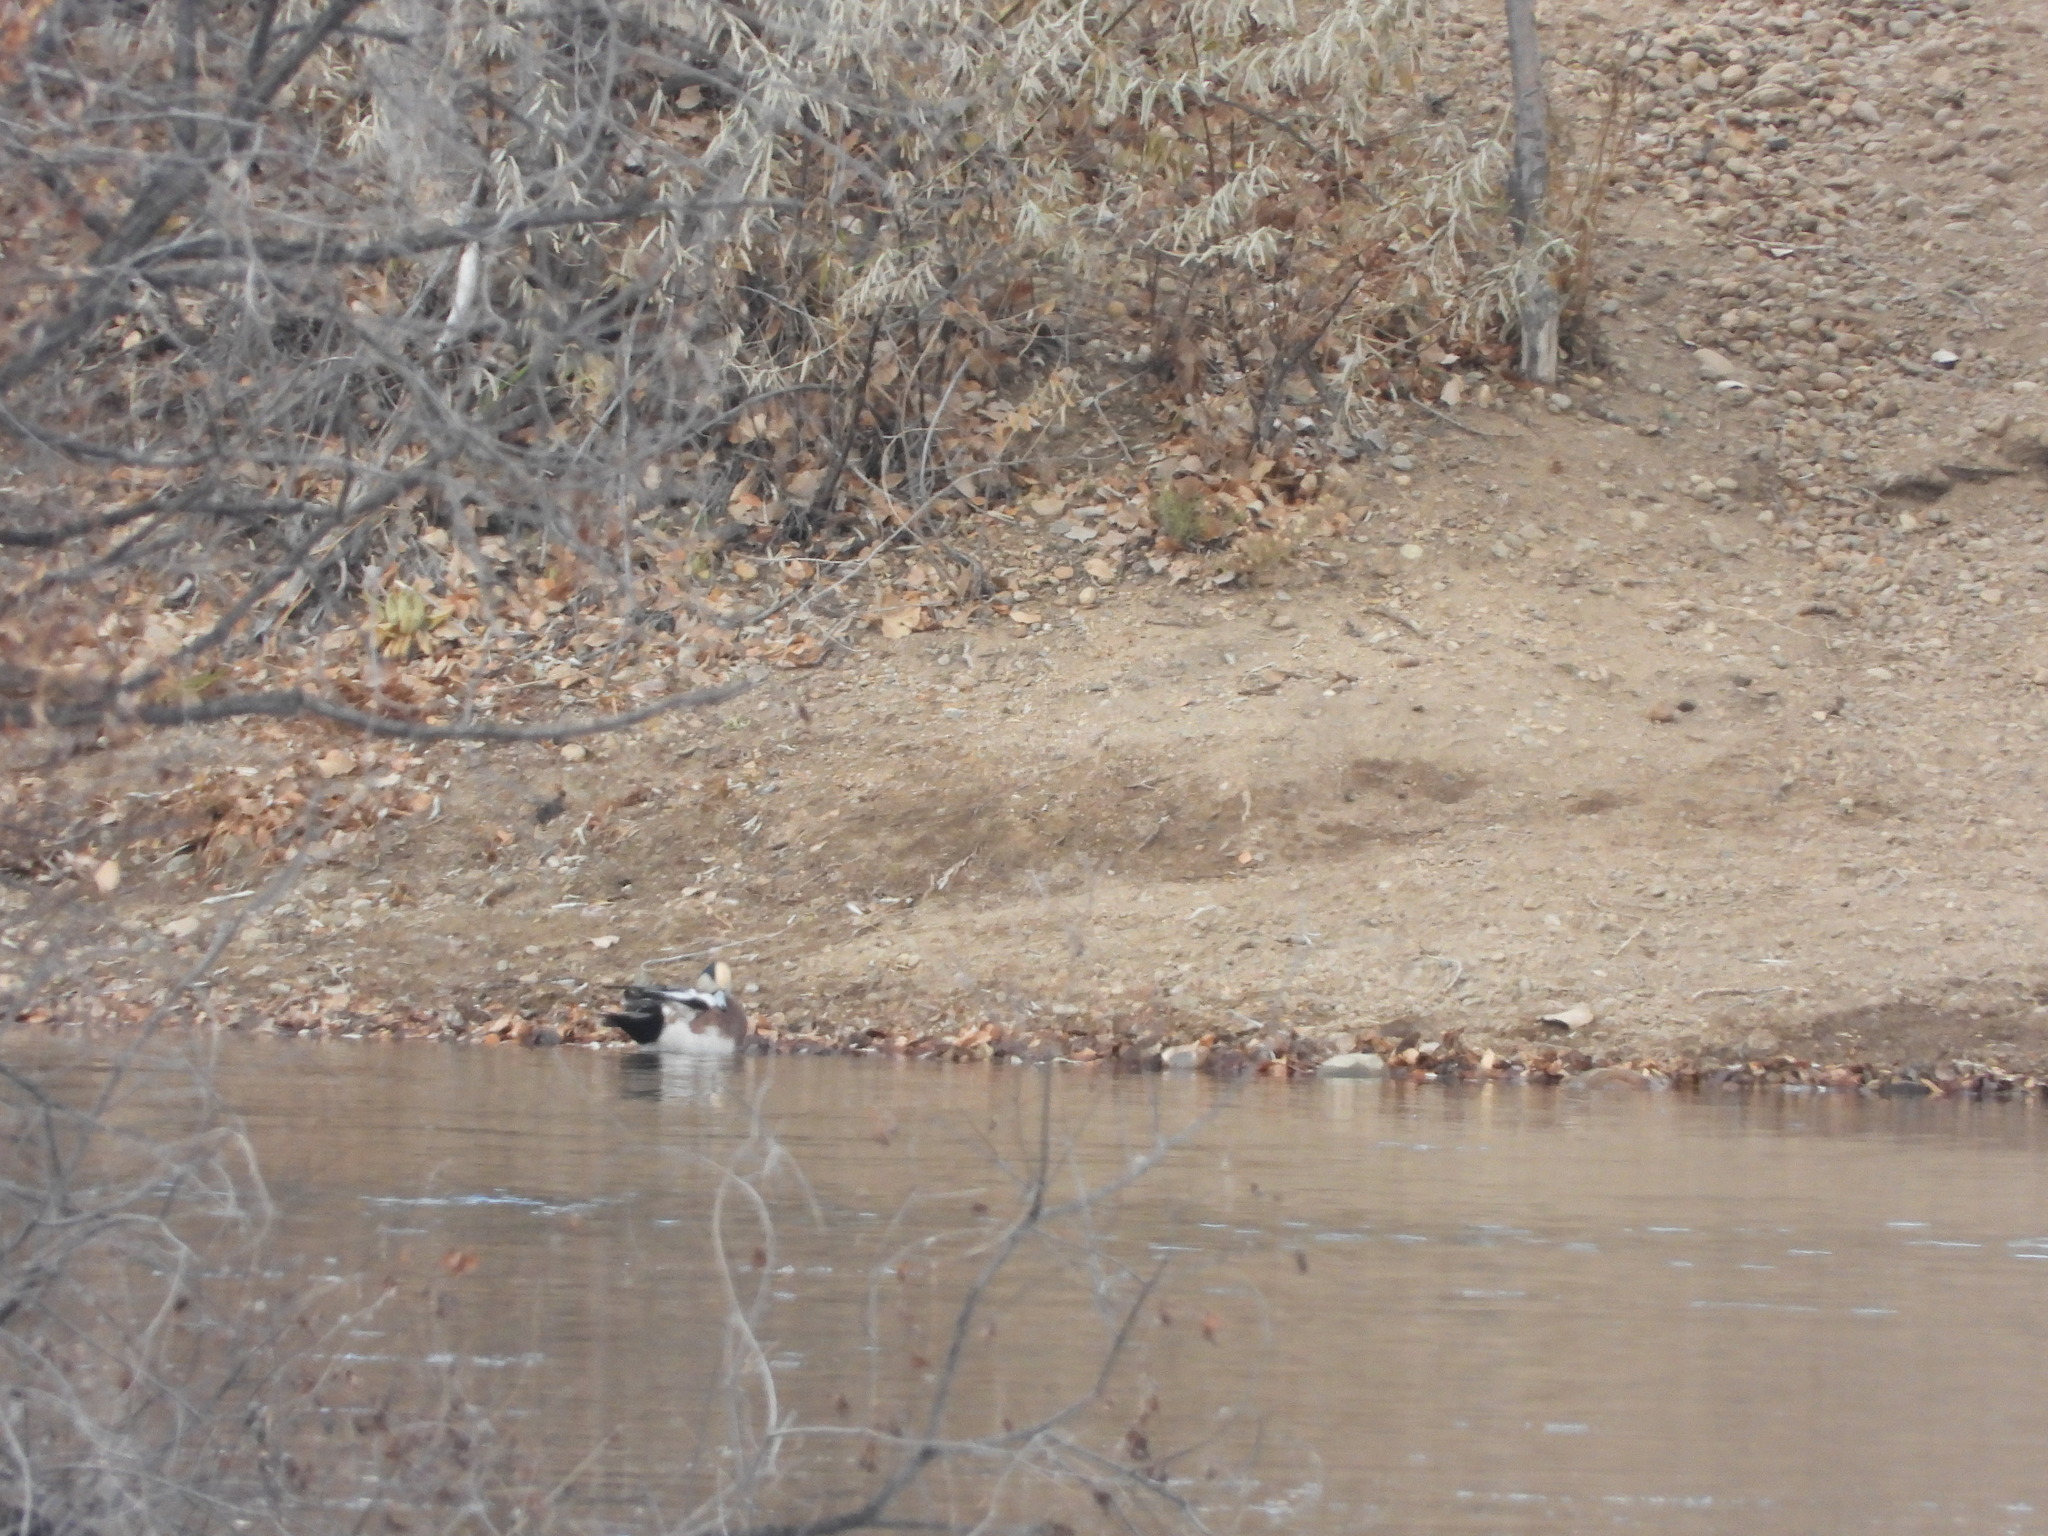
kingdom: Animalia
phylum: Chordata
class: Aves
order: Anseriformes
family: Anatidae
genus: Mareca
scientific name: Mareca americana
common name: American wigeon
